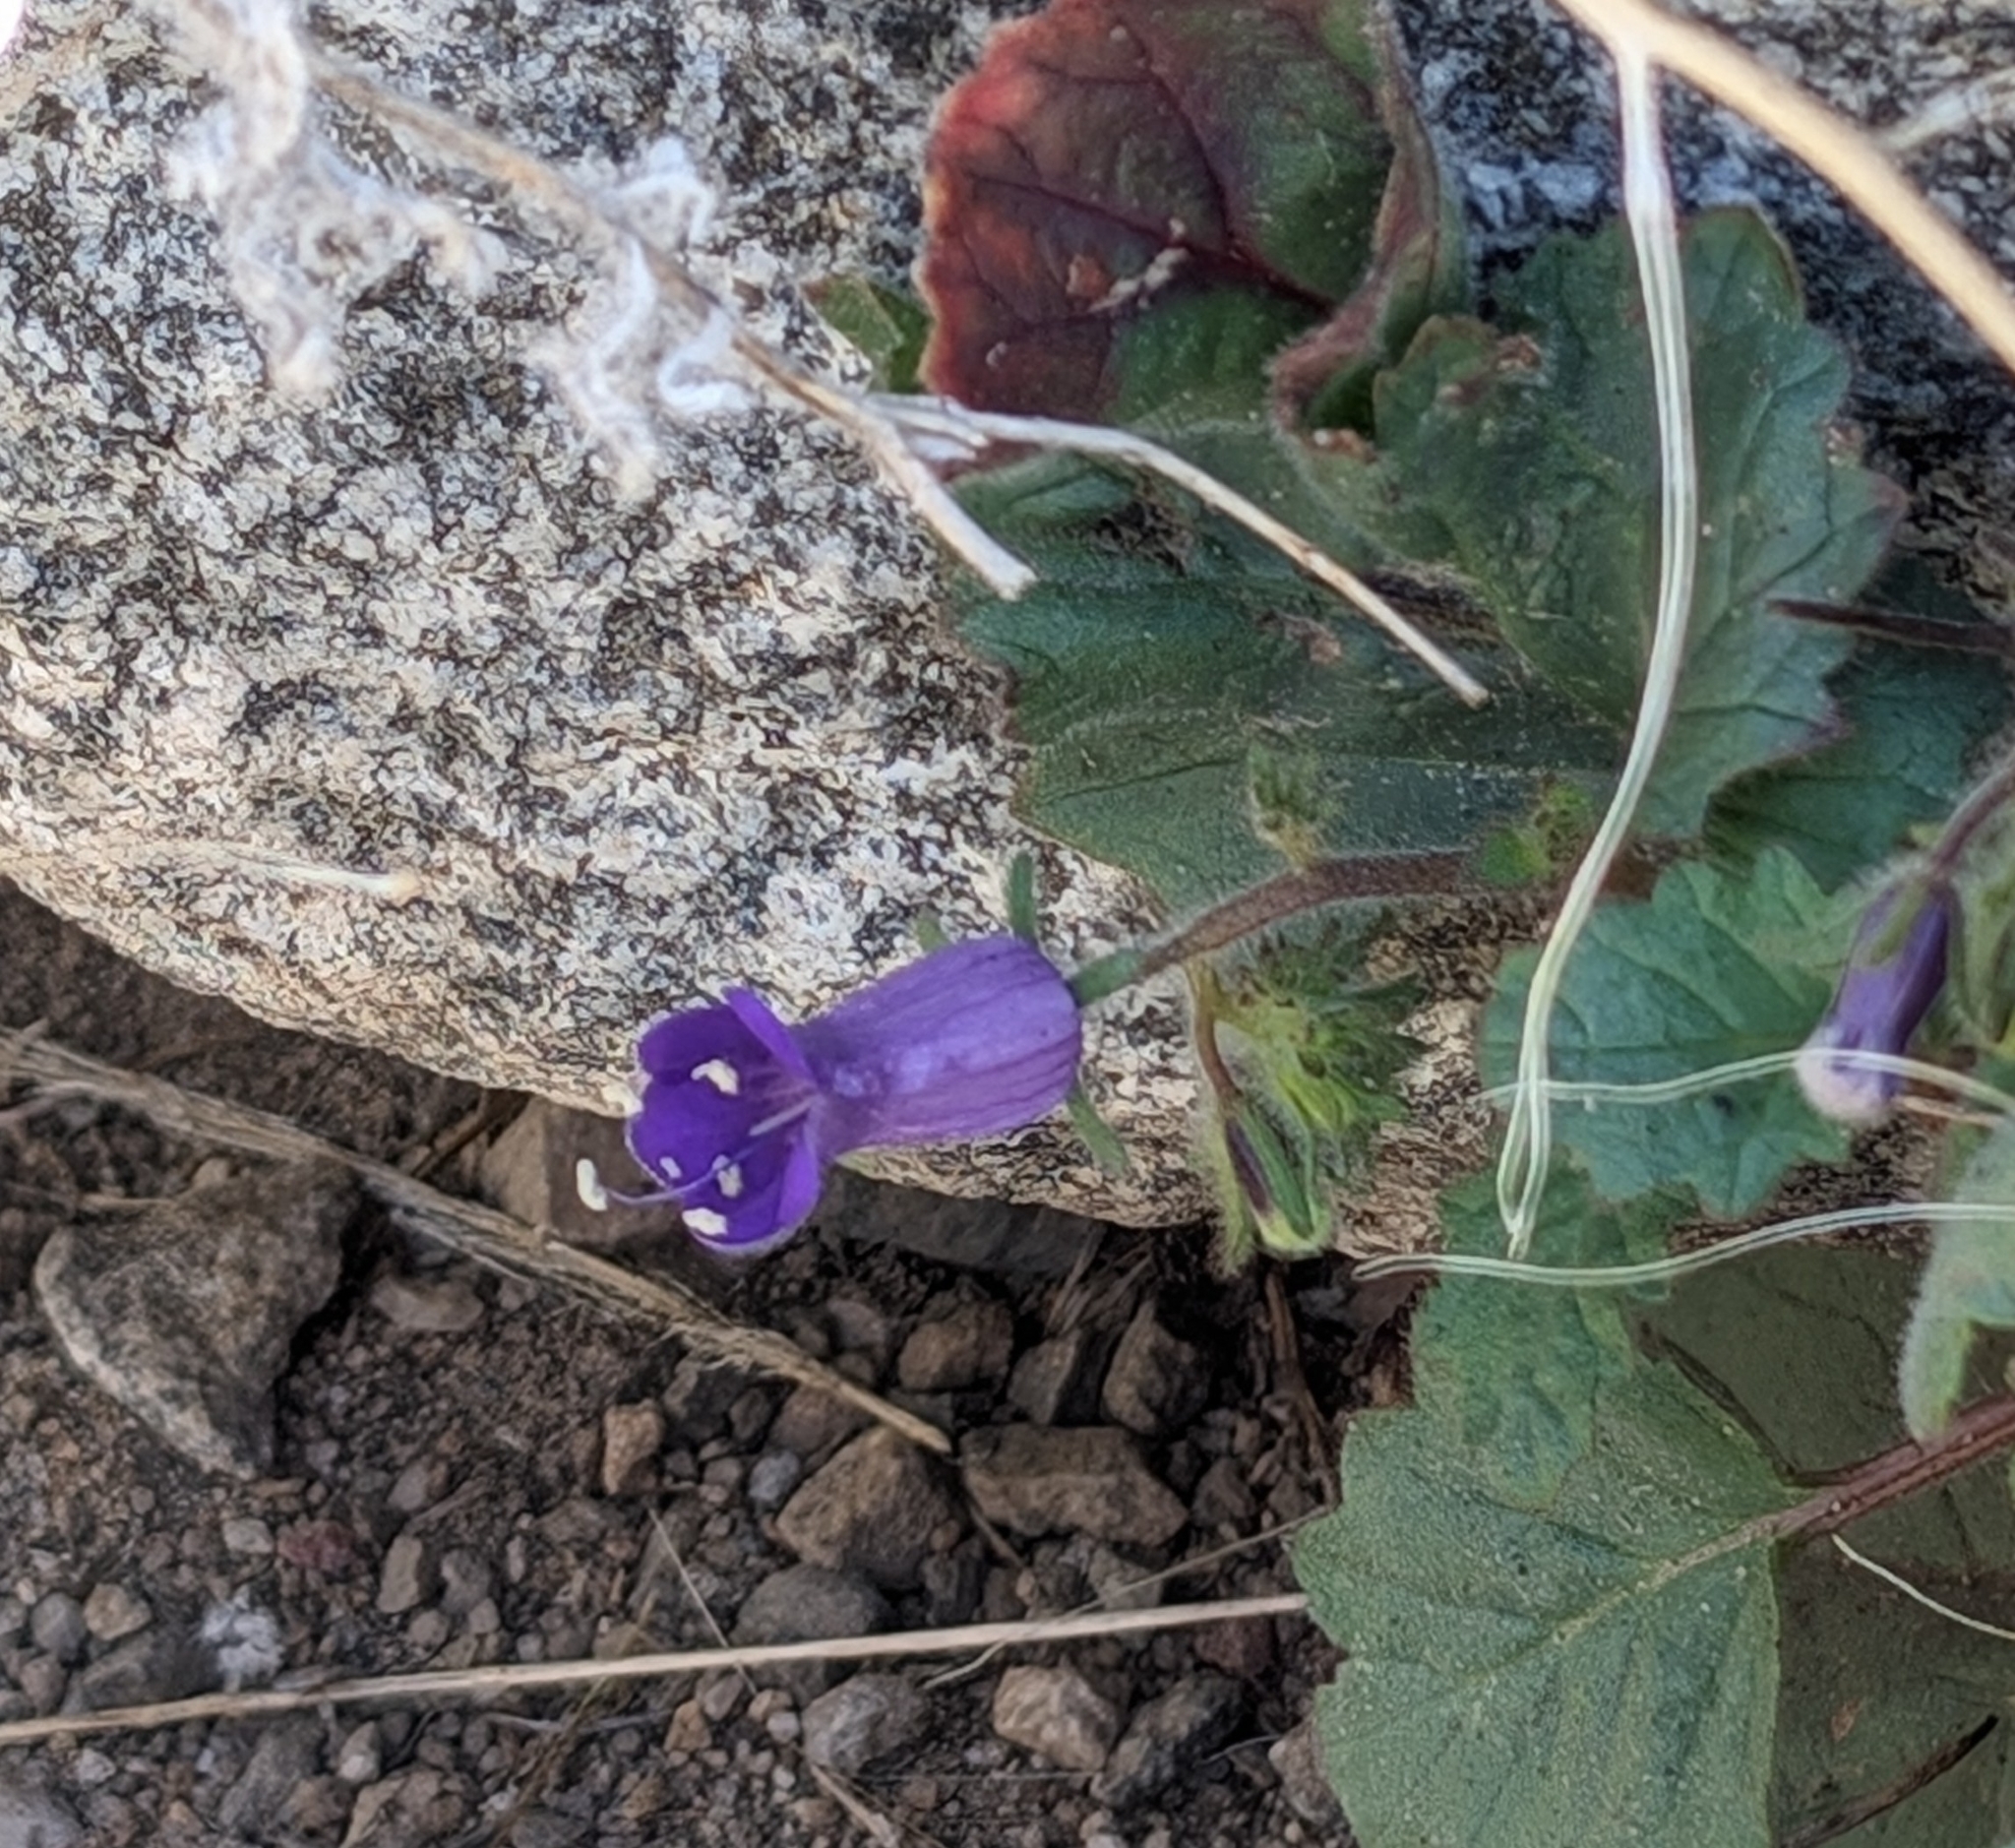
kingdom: Plantae
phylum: Tracheophyta
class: Magnoliopsida
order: Boraginales
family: Hydrophyllaceae
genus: Phacelia
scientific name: Phacelia minor
